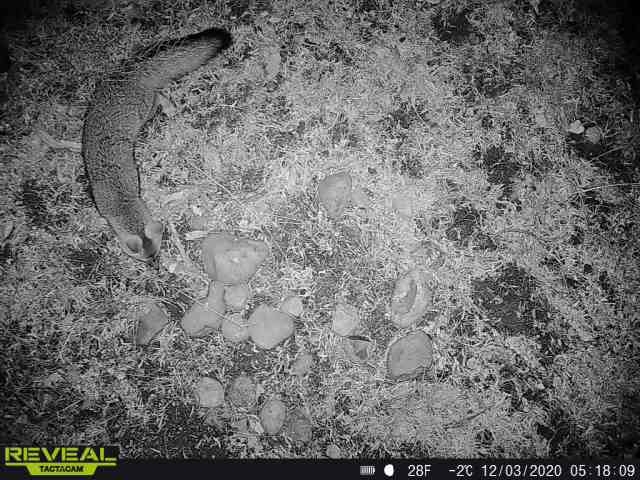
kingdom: Animalia
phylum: Chordata
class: Mammalia
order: Carnivora
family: Canidae
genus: Urocyon
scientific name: Urocyon cinereoargenteus
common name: Gray fox
